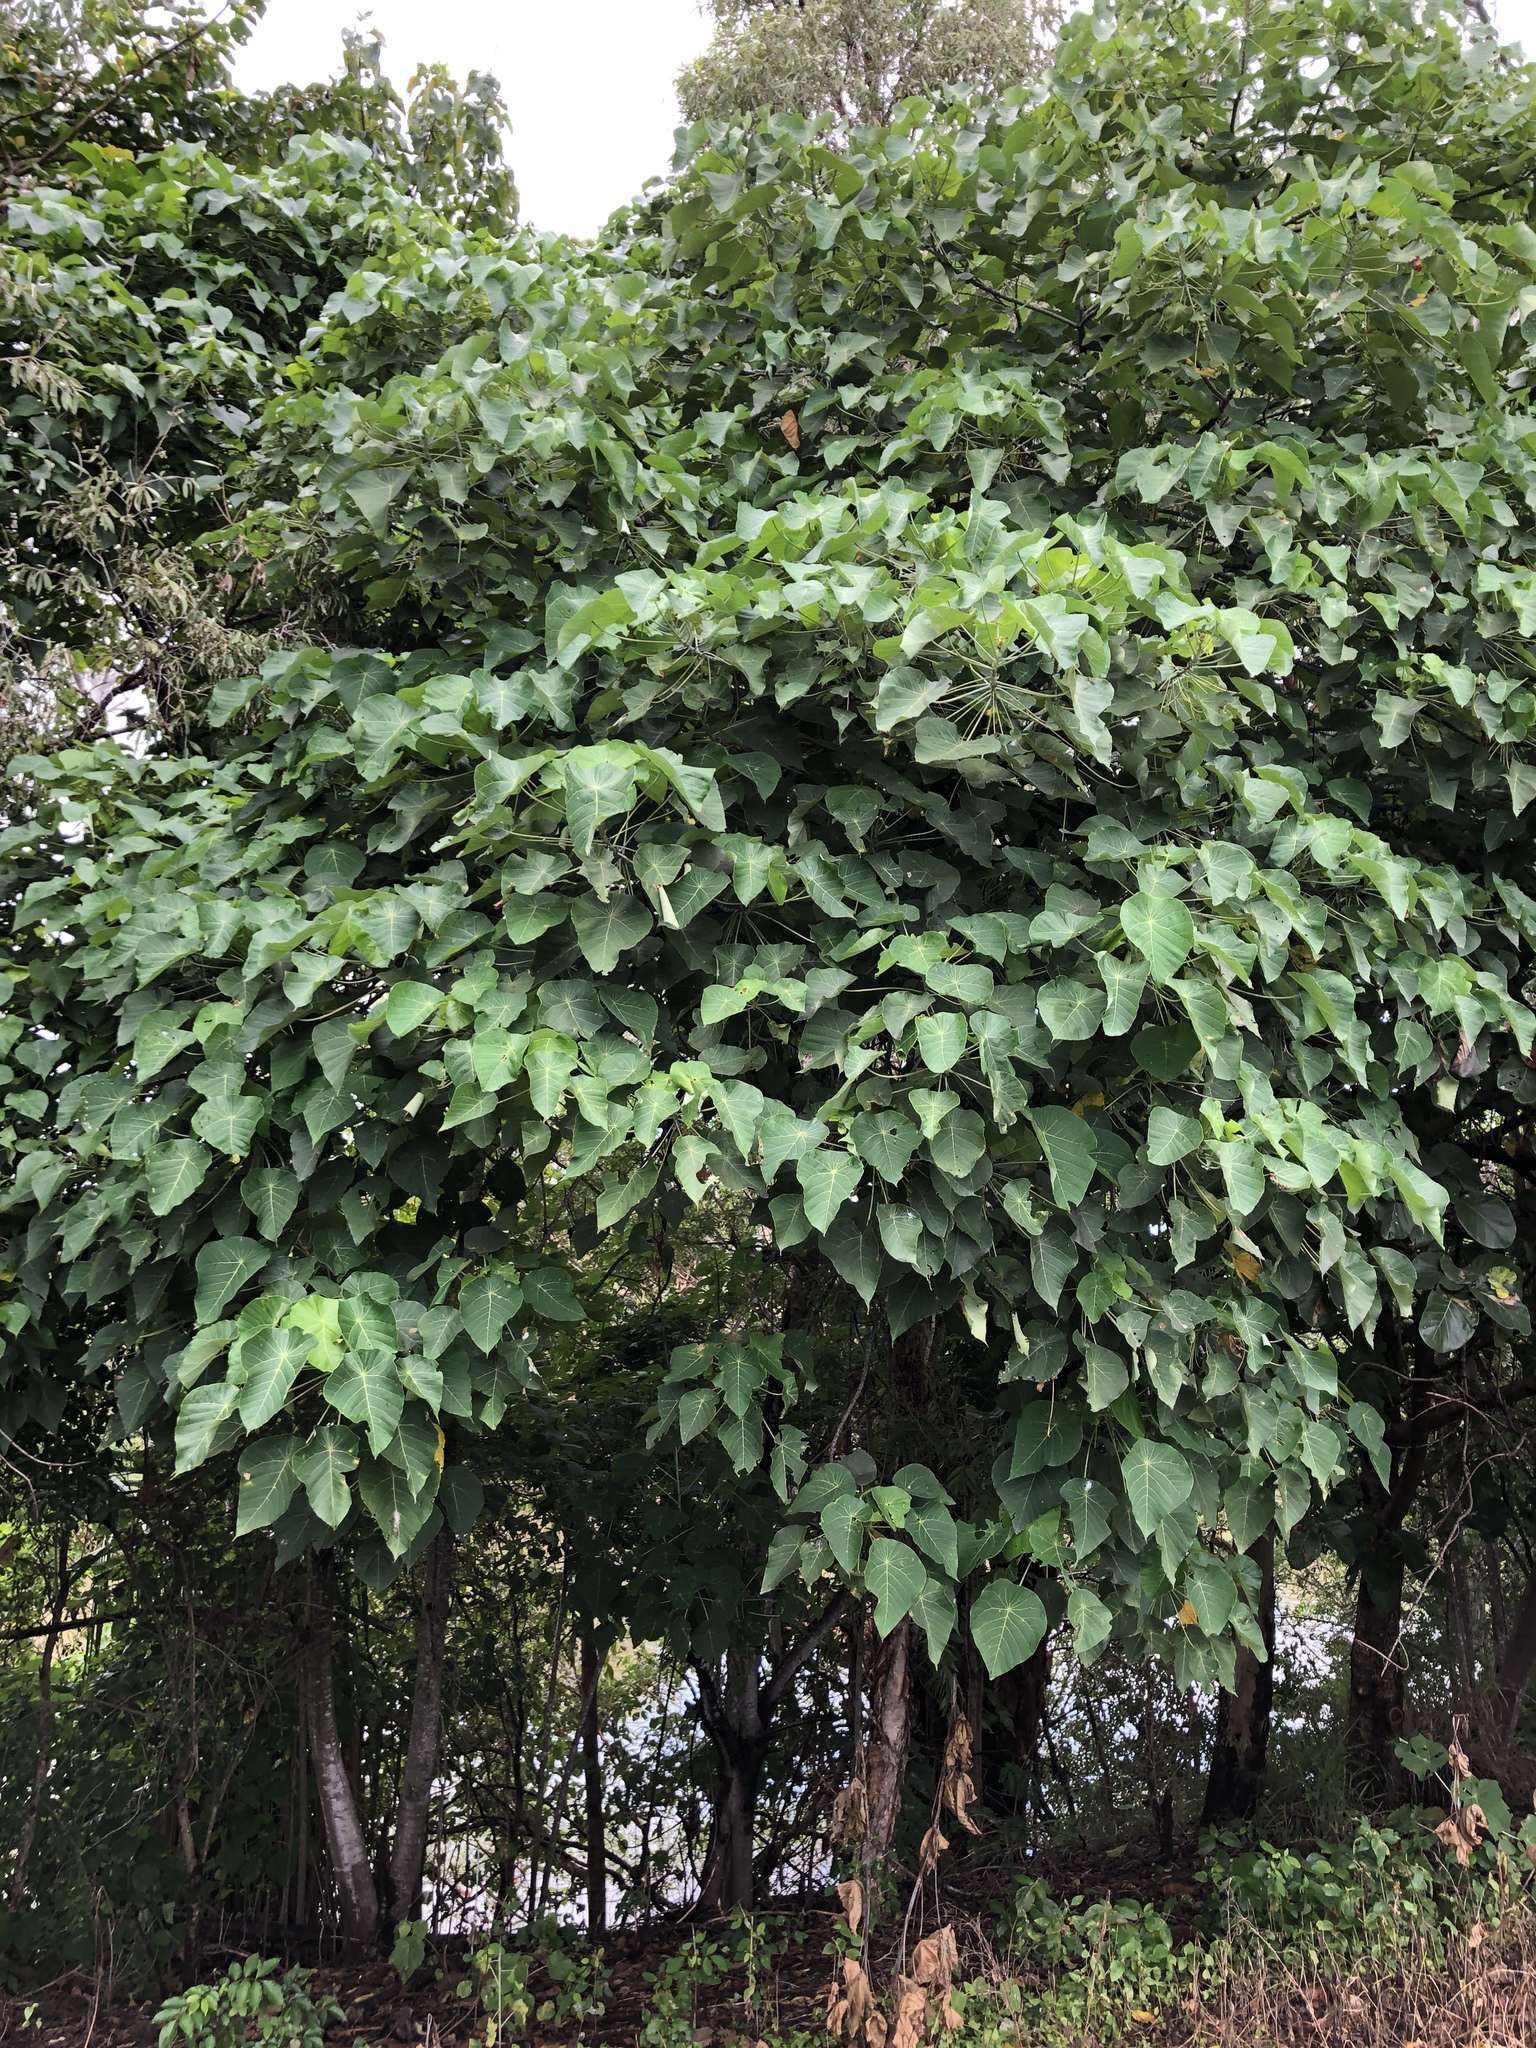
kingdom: Plantae
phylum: Tracheophyta
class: Magnoliopsida
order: Malpighiales
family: Euphorbiaceae
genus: Macaranga
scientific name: Macaranga tanarius
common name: Parasol leaf tree
